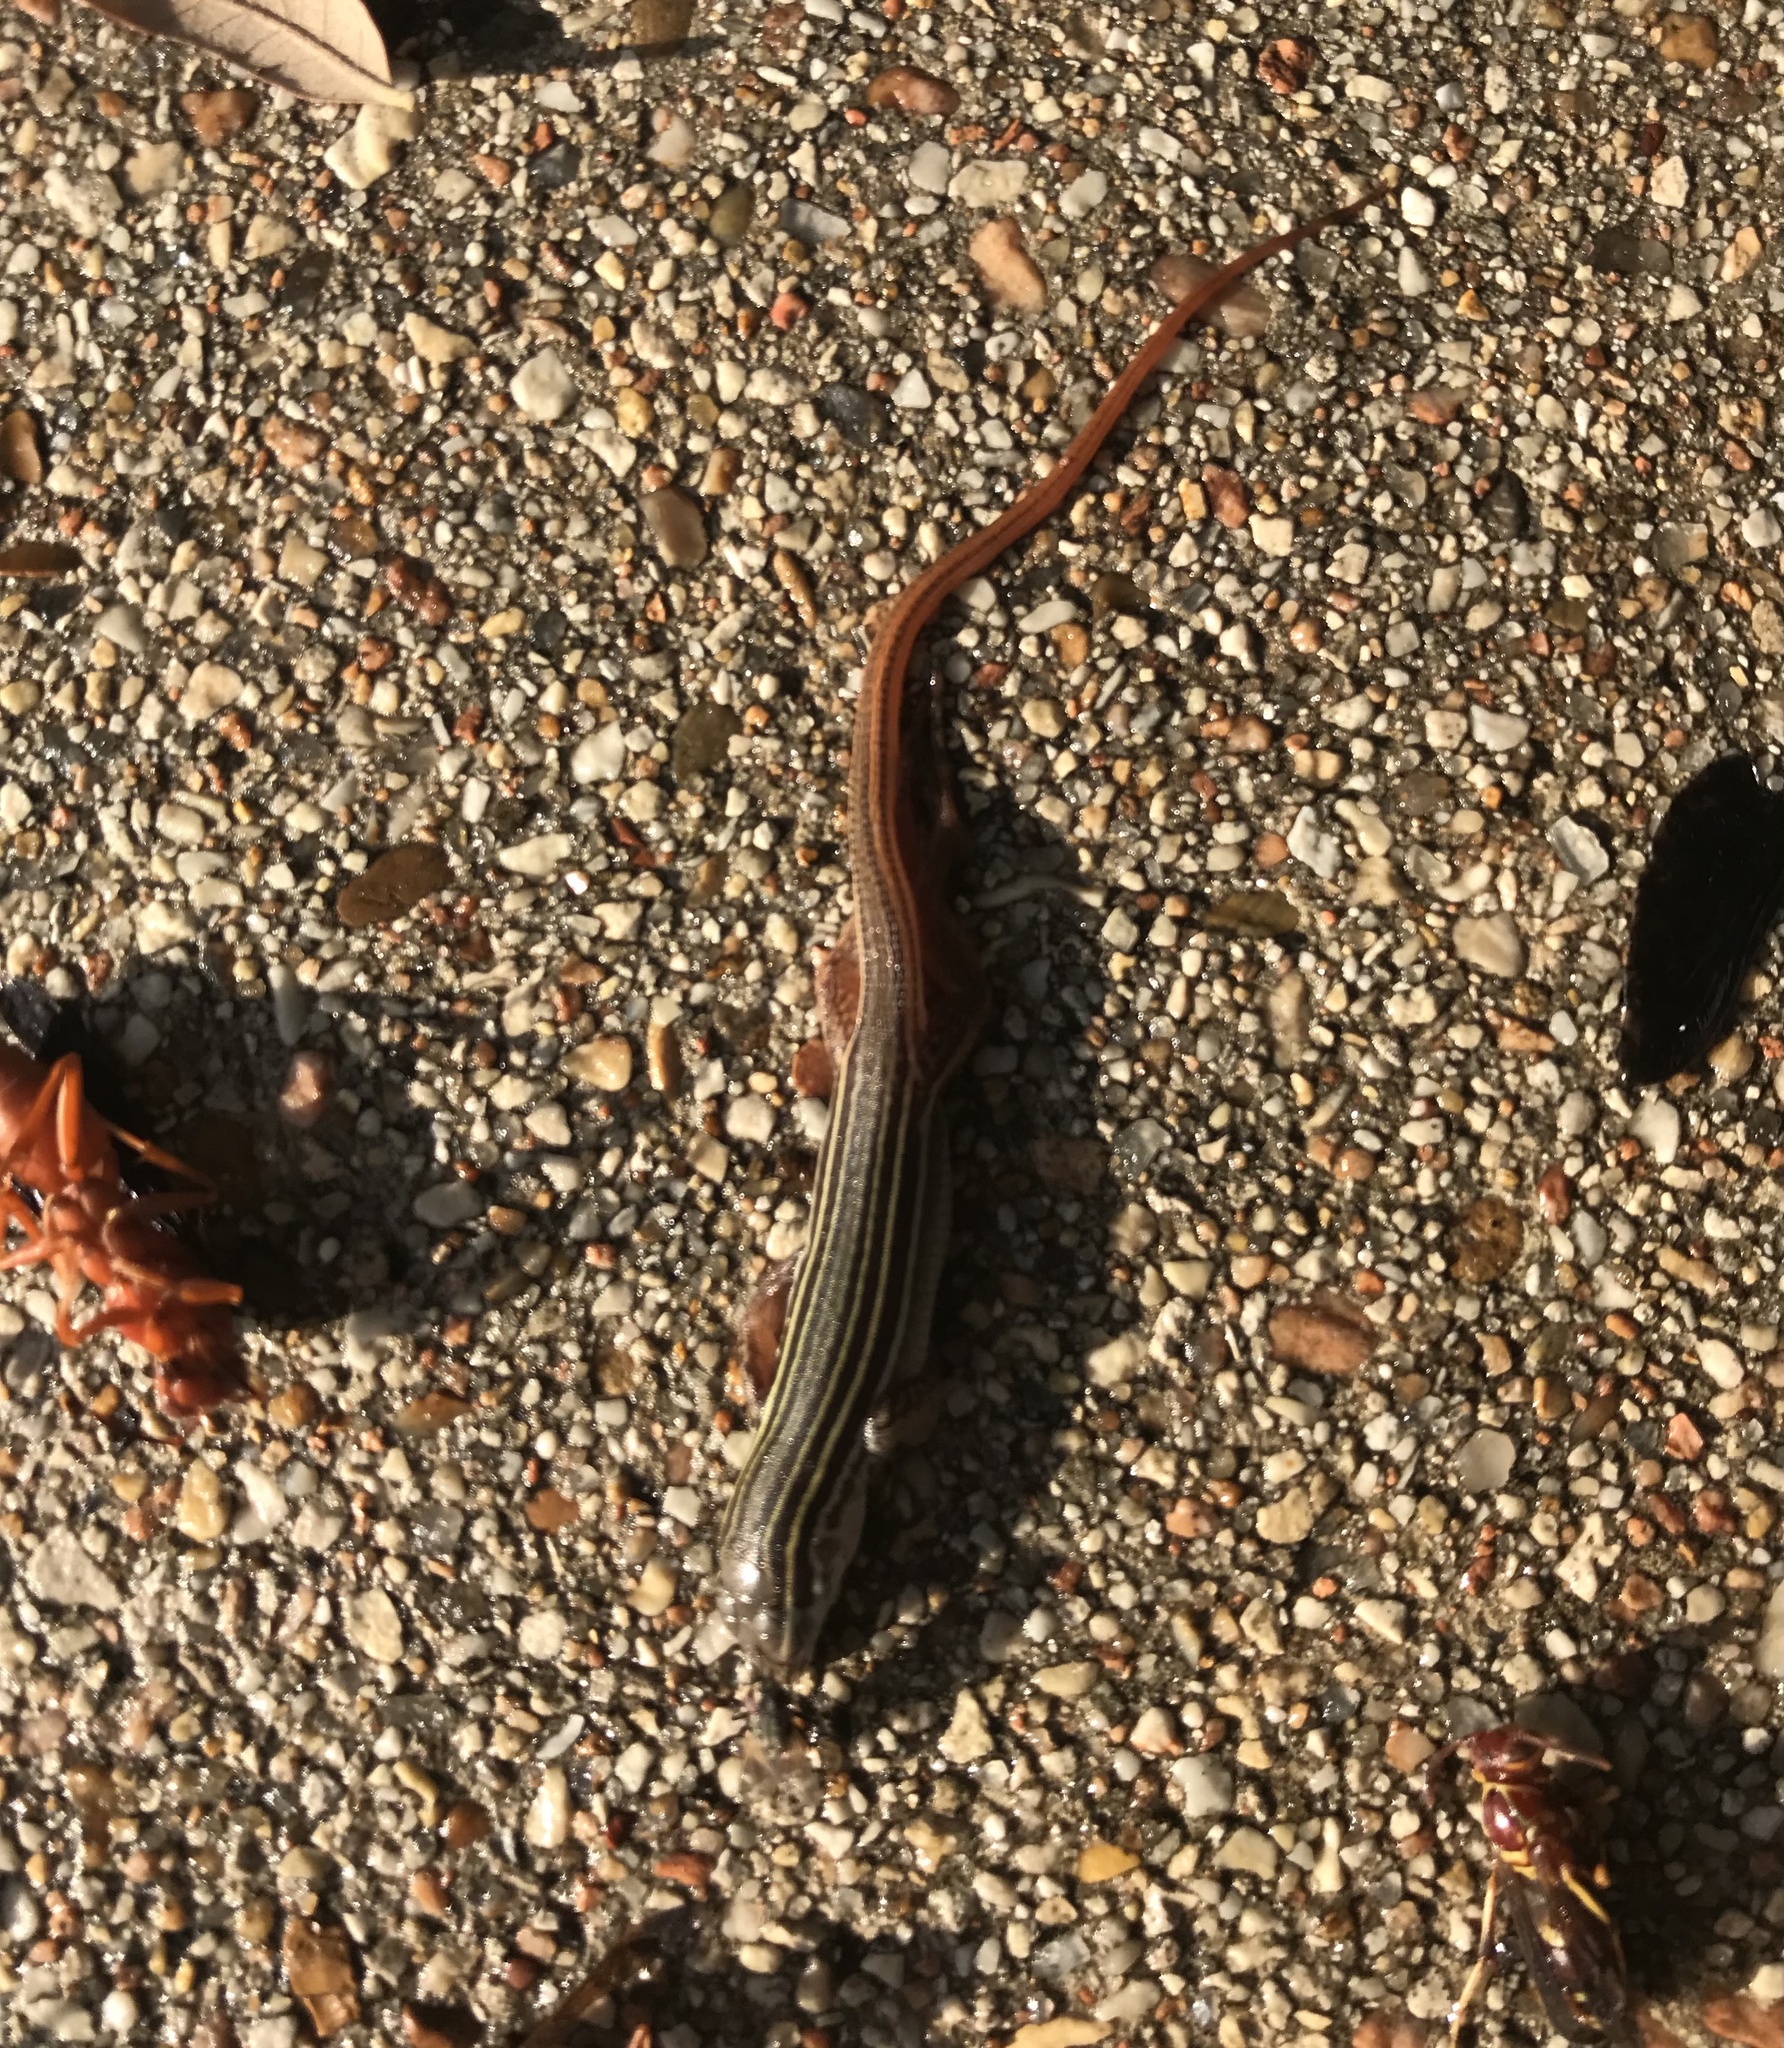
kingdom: Animalia
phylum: Chordata
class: Squamata
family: Teiidae
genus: Aspidoscelis
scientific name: Aspidoscelis gularis
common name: Eastern spotted whiptail
